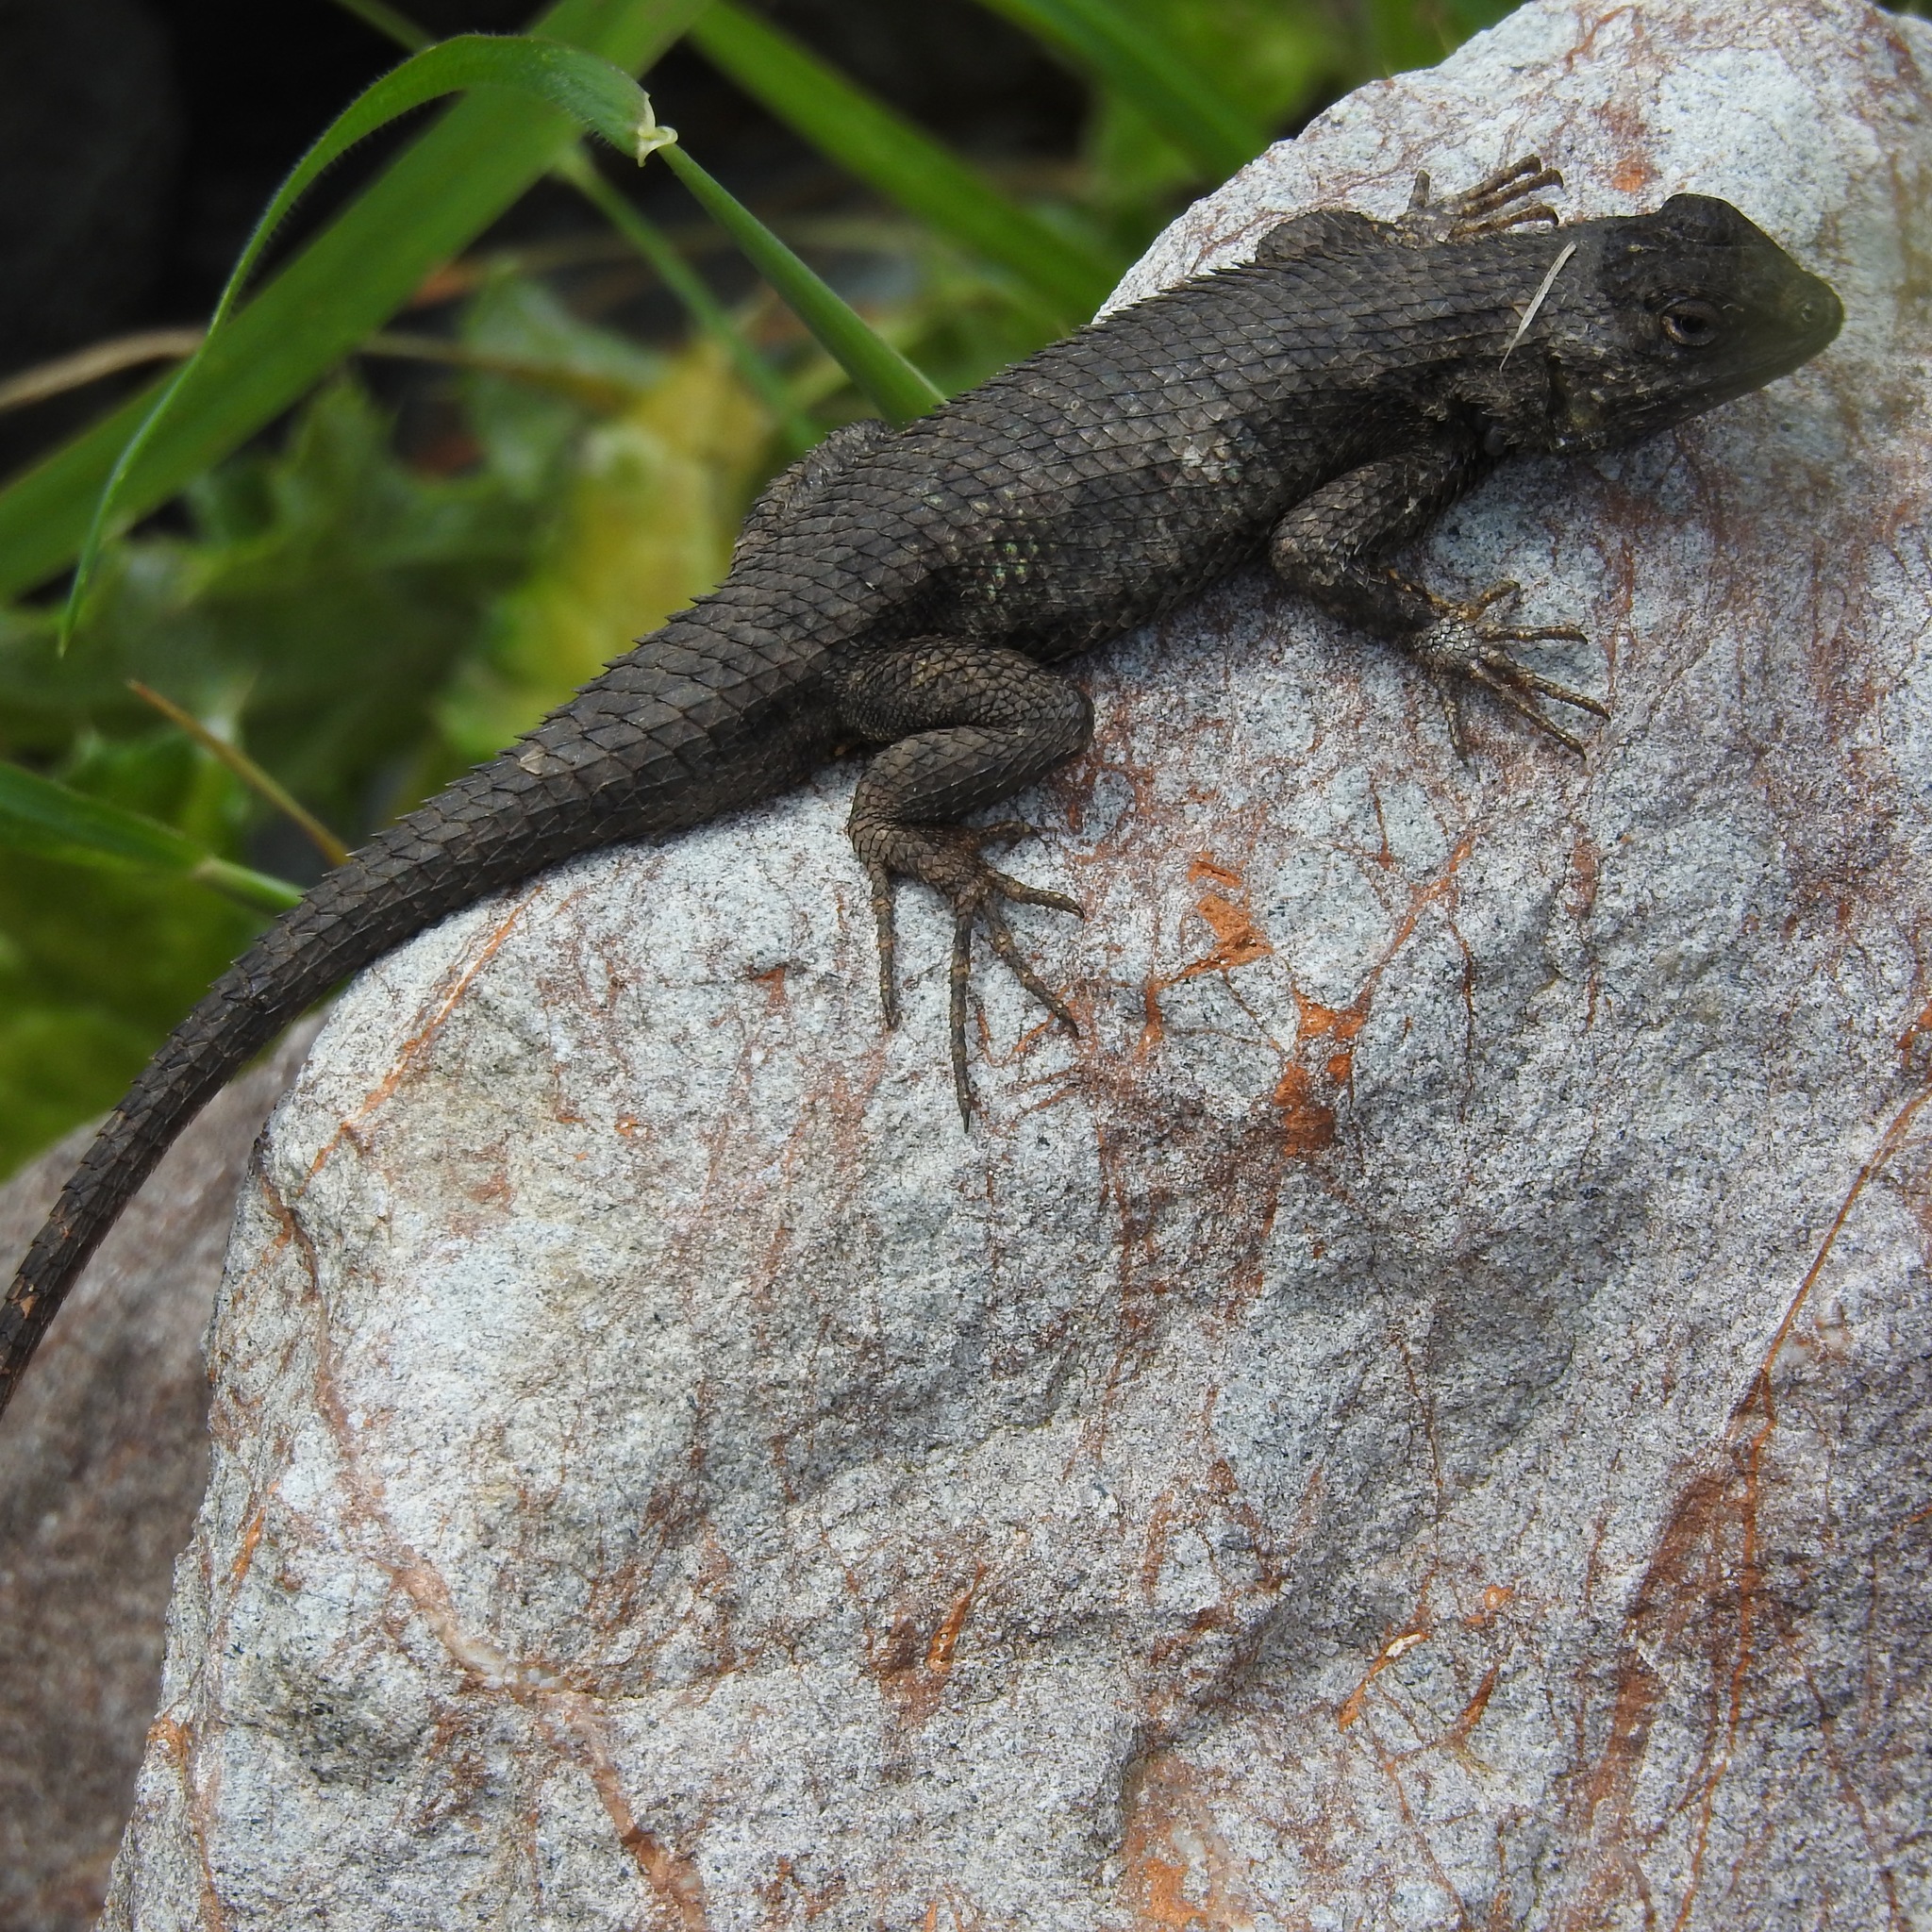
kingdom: Animalia
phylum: Chordata
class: Squamata
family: Phrynosomatidae
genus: Sceloporus
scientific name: Sceloporus occidentalis
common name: Western fence lizard
